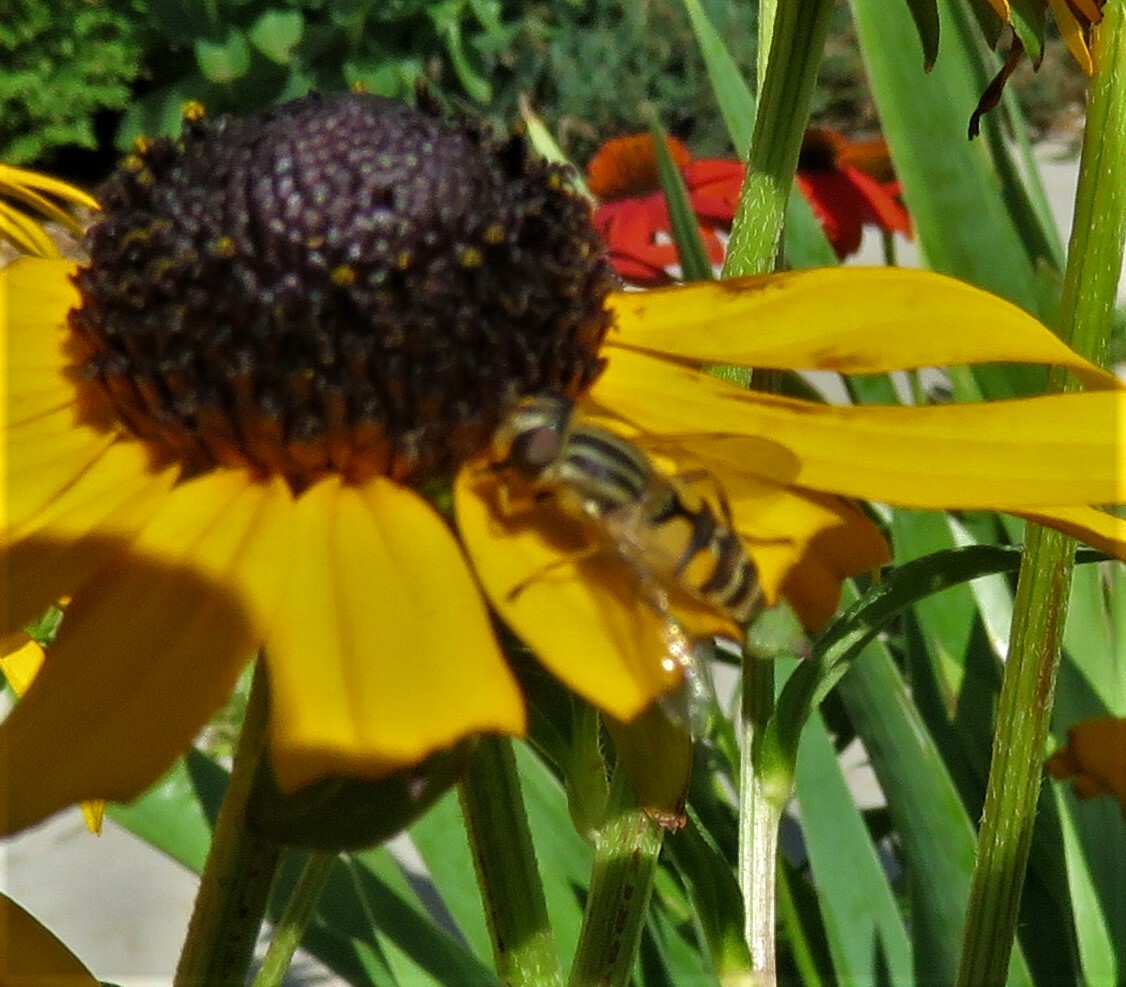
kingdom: Animalia
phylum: Arthropoda
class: Insecta
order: Diptera
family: Syrphidae
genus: Helophilus
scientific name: Helophilus latifrons
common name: Broad-headed marsh fly
